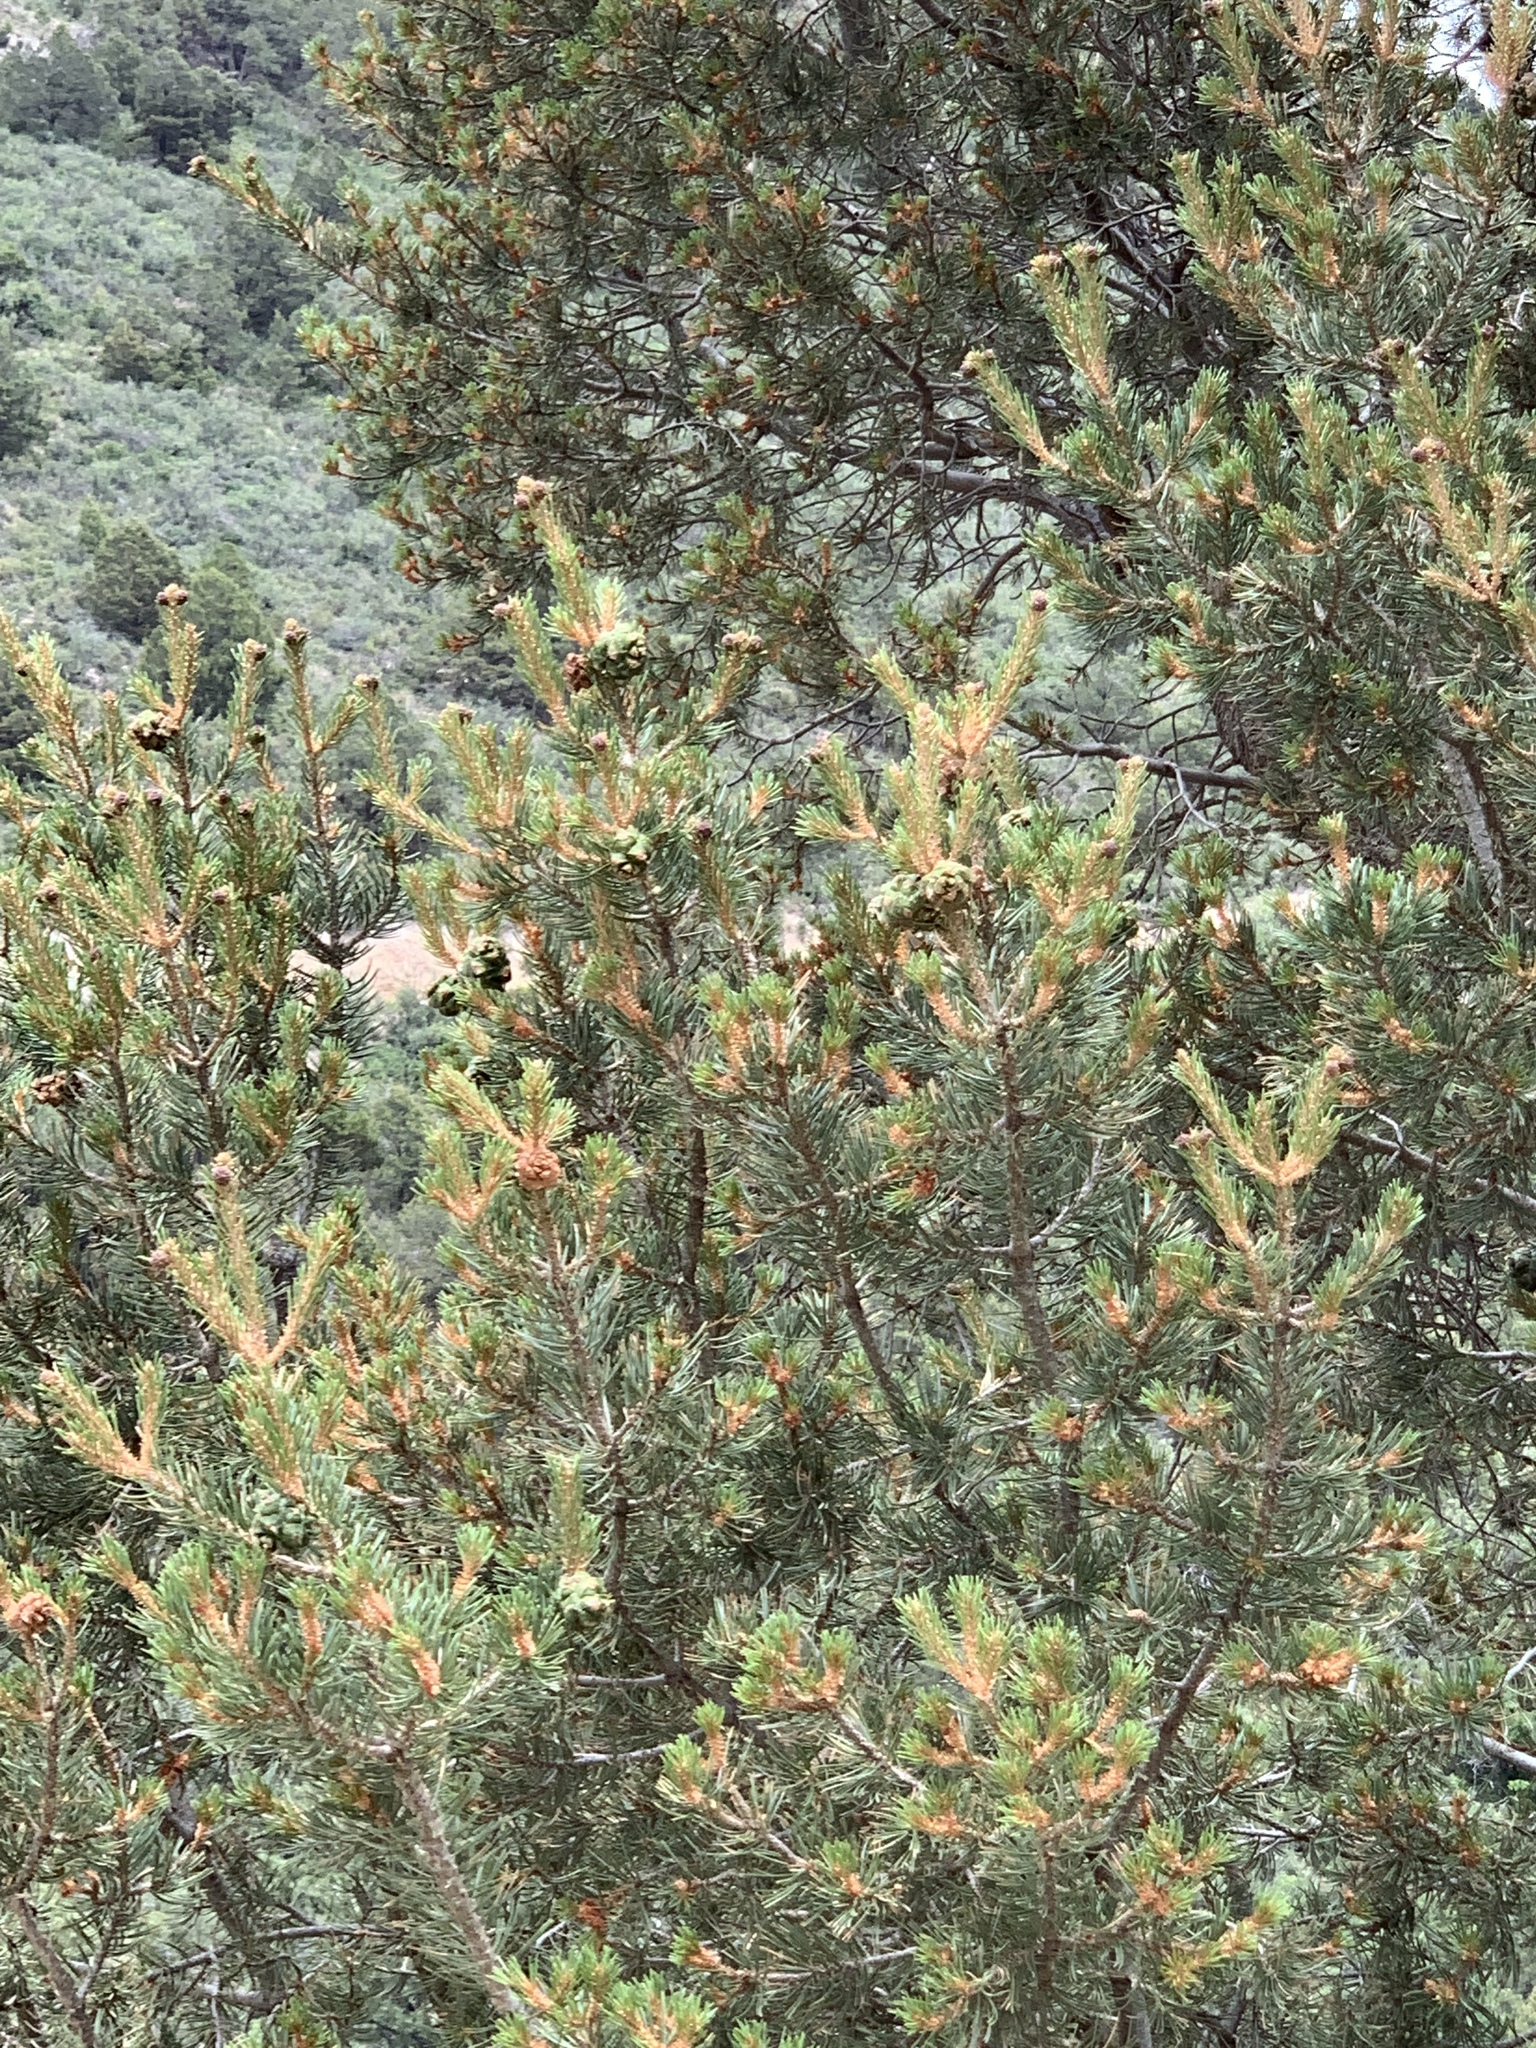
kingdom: Plantae
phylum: Tracheophyta
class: Pinopsida
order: Pinales
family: Pinaceae
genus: Pinus
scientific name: Pinus edulis
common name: Colorado pinyon
